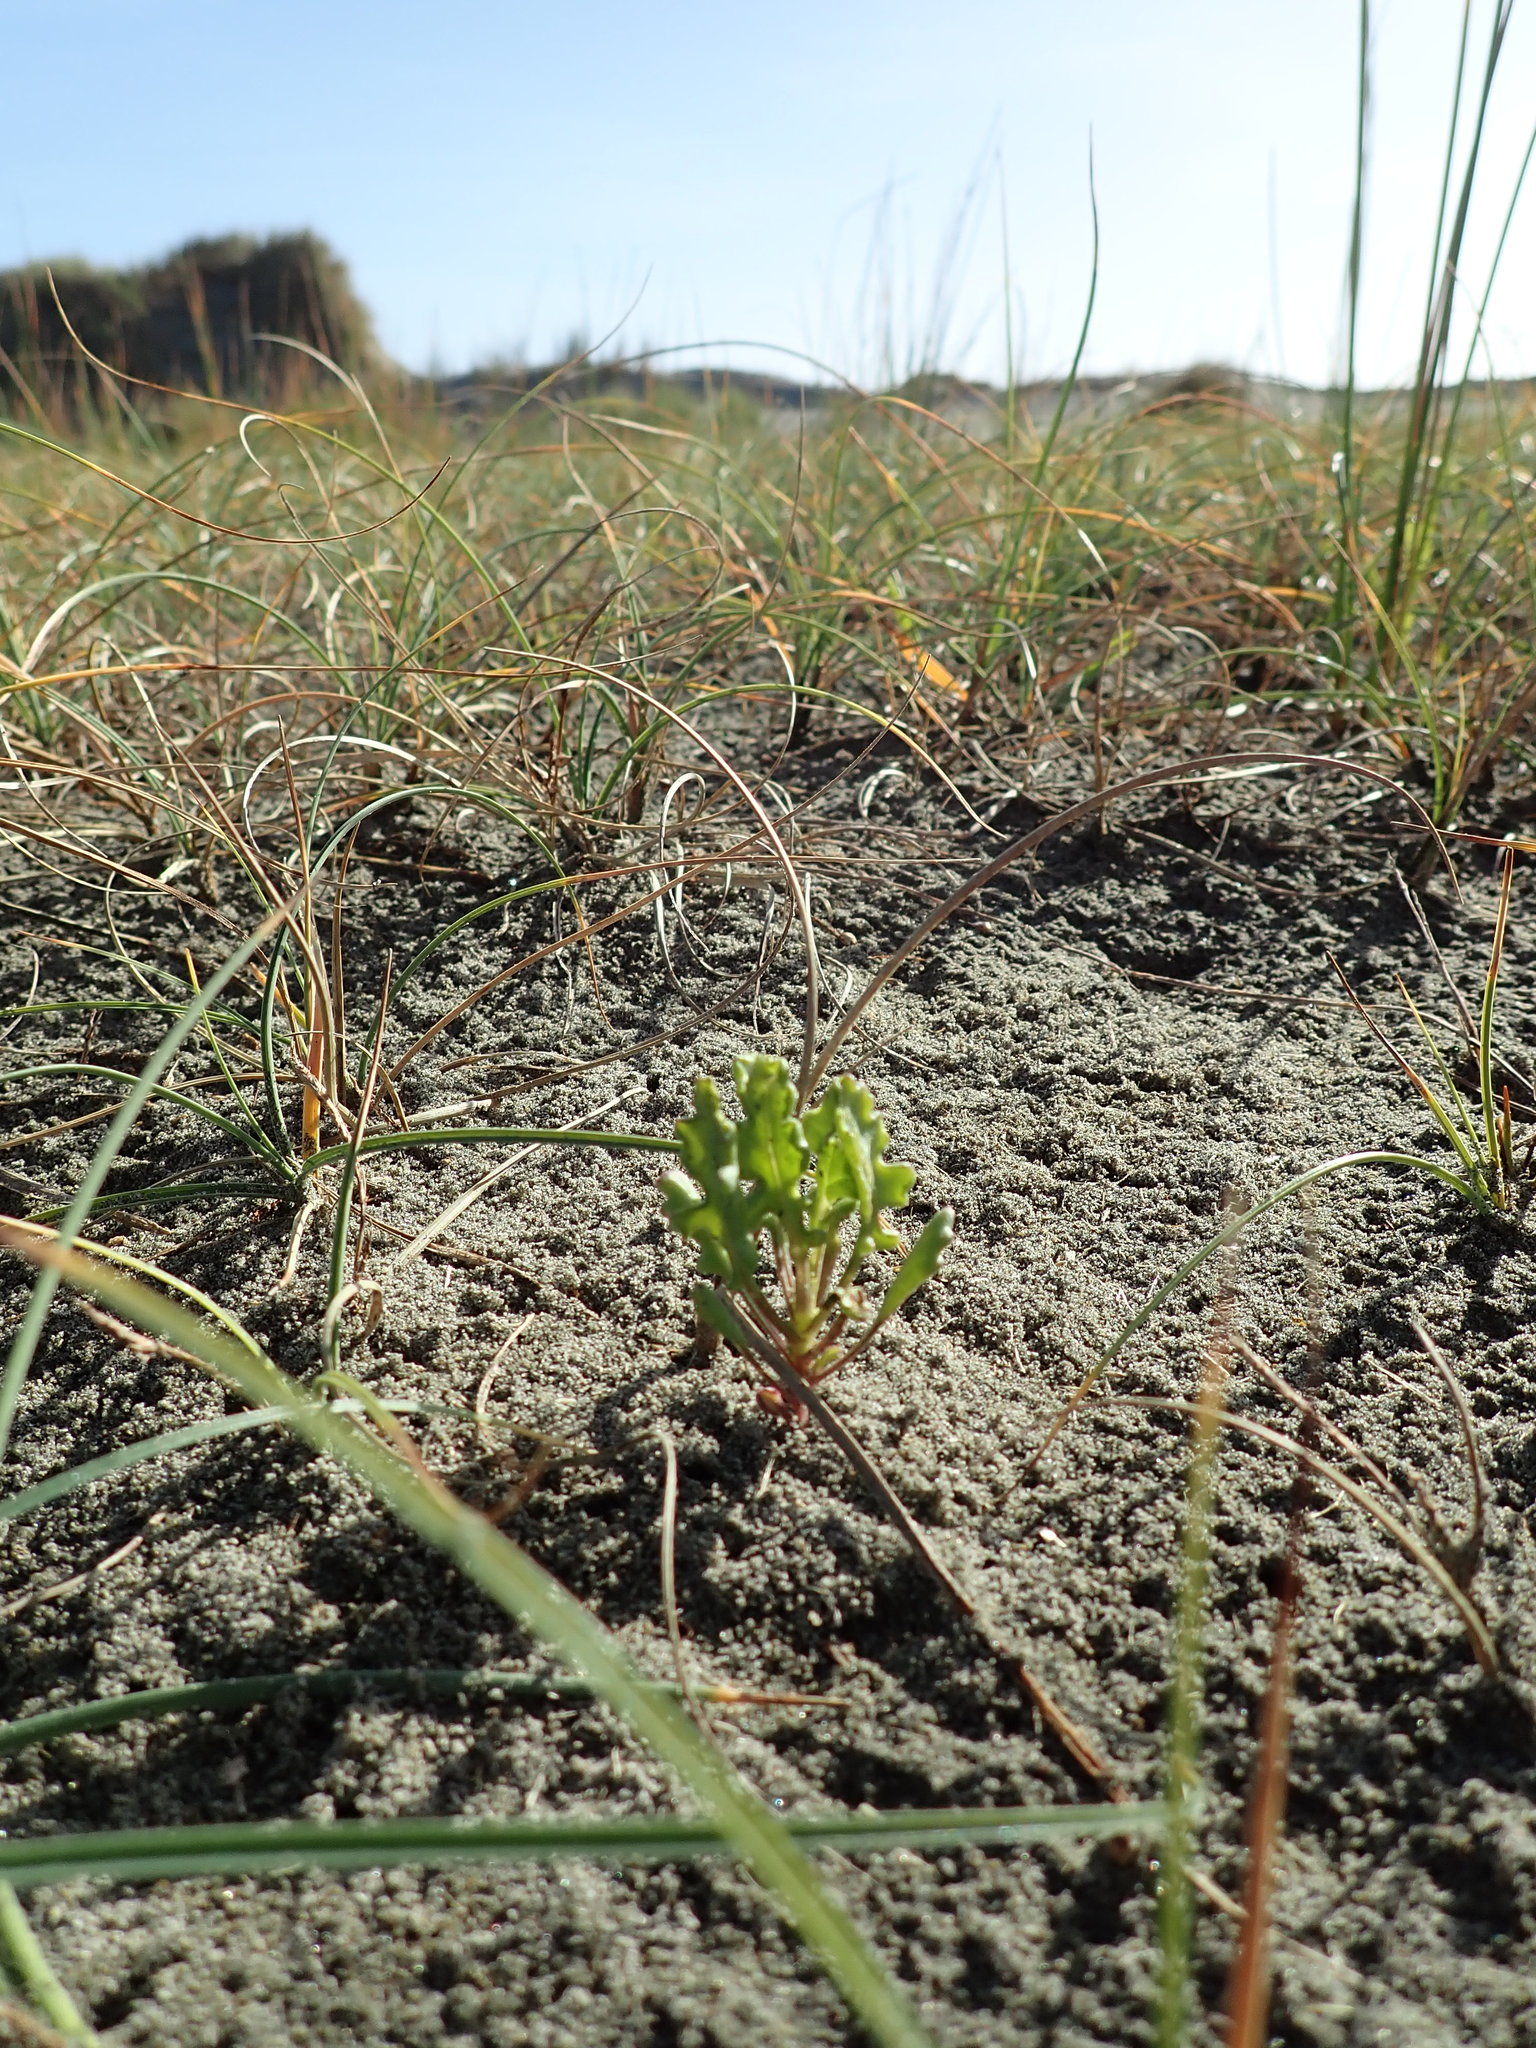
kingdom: Plantae
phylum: Tracheophyta
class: Magnoliopsida
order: Asterales
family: Asteraceae
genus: Senecio
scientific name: Senecio elegans
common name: Purple groundsel
